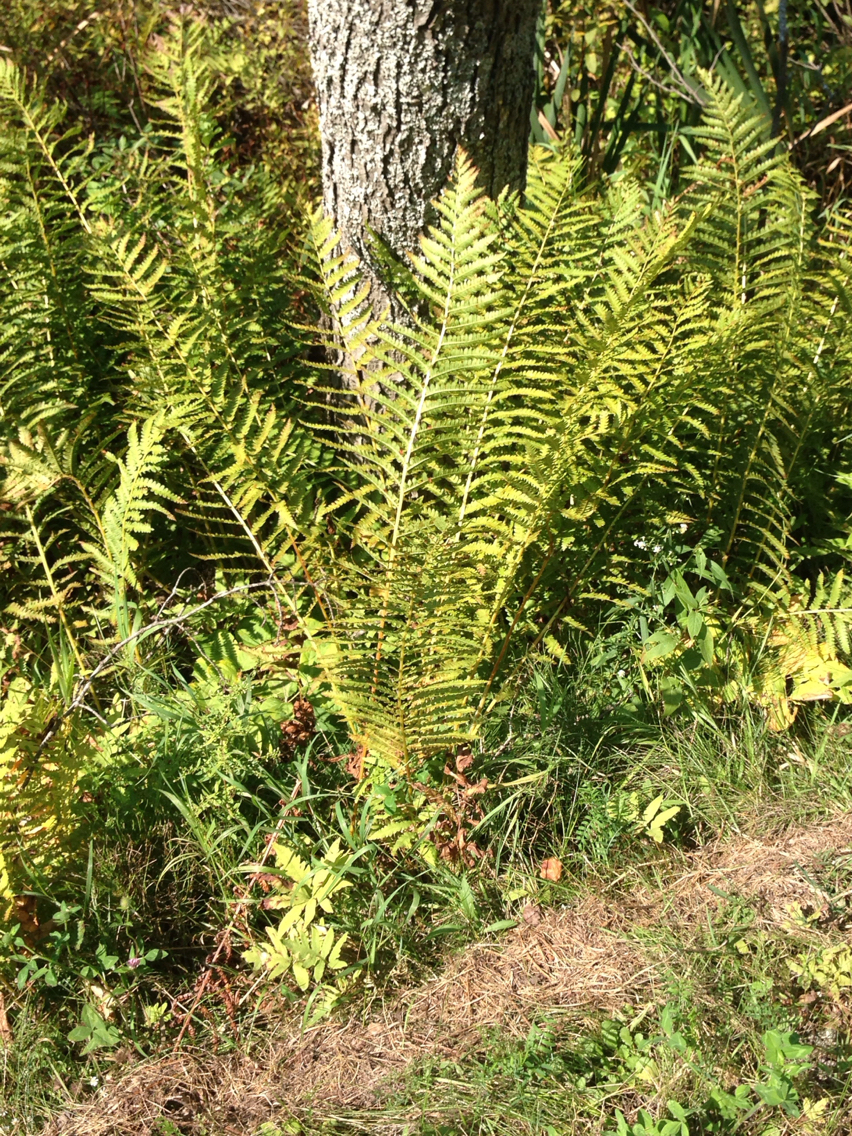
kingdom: Plantae
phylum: Tracheophyta
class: Polypodiopsida
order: Osmundales
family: Osmundaceae
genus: Osmundastrum
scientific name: Osmundastrum cinnamomeum
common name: Cinnamon fern
